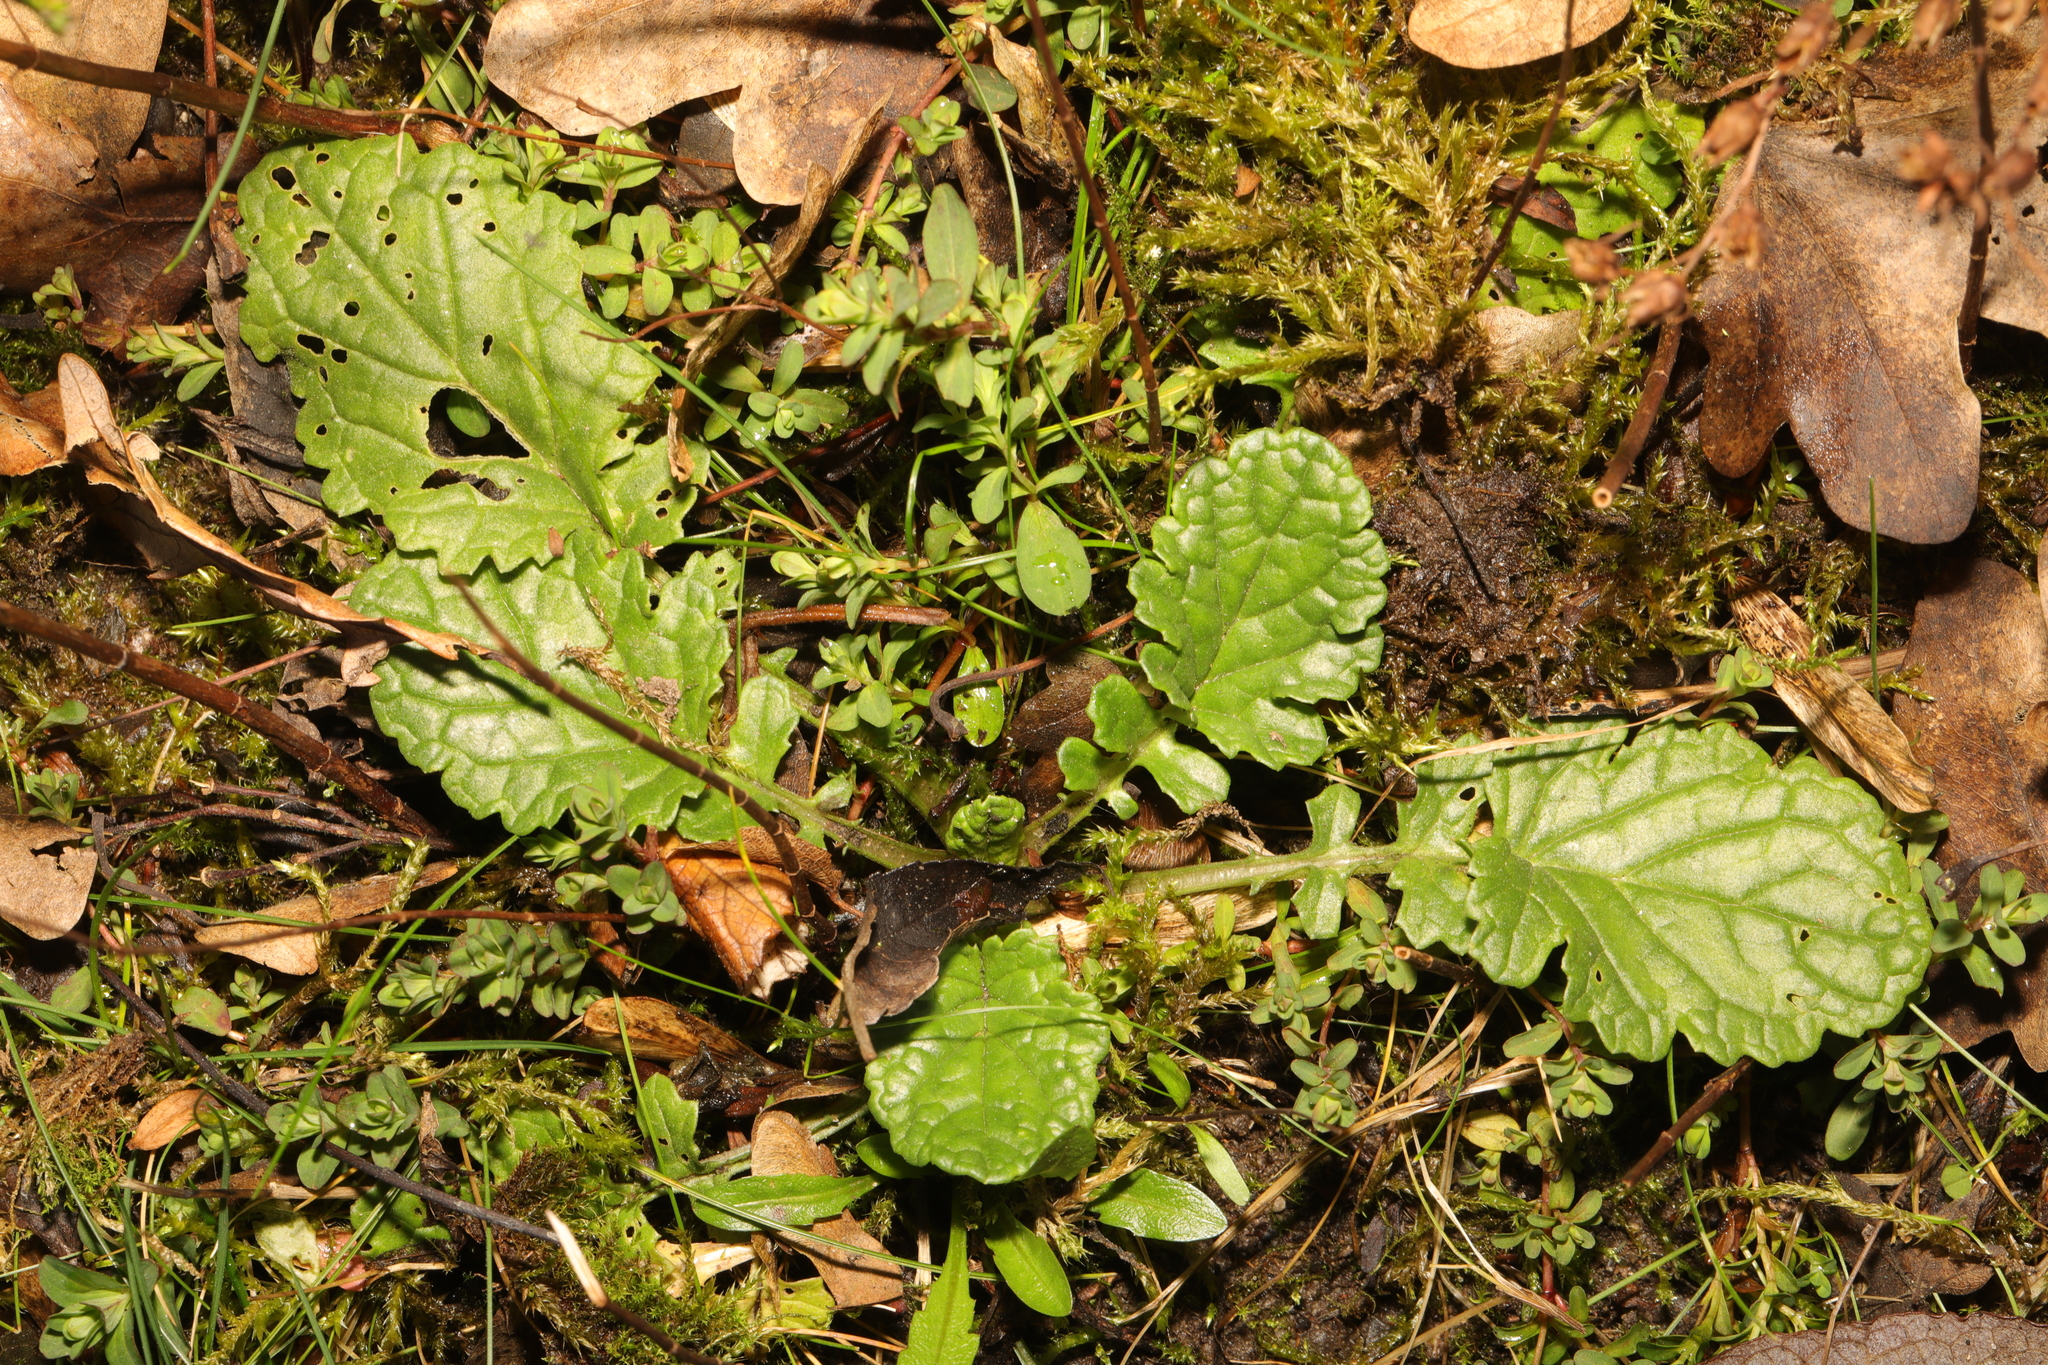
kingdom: Plantae
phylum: Tracheophyta
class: Magnoliopsida
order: Asterales
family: Asteraceae
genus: Jacobaea
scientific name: Jacobaea vulgaris
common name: Stinking willie
